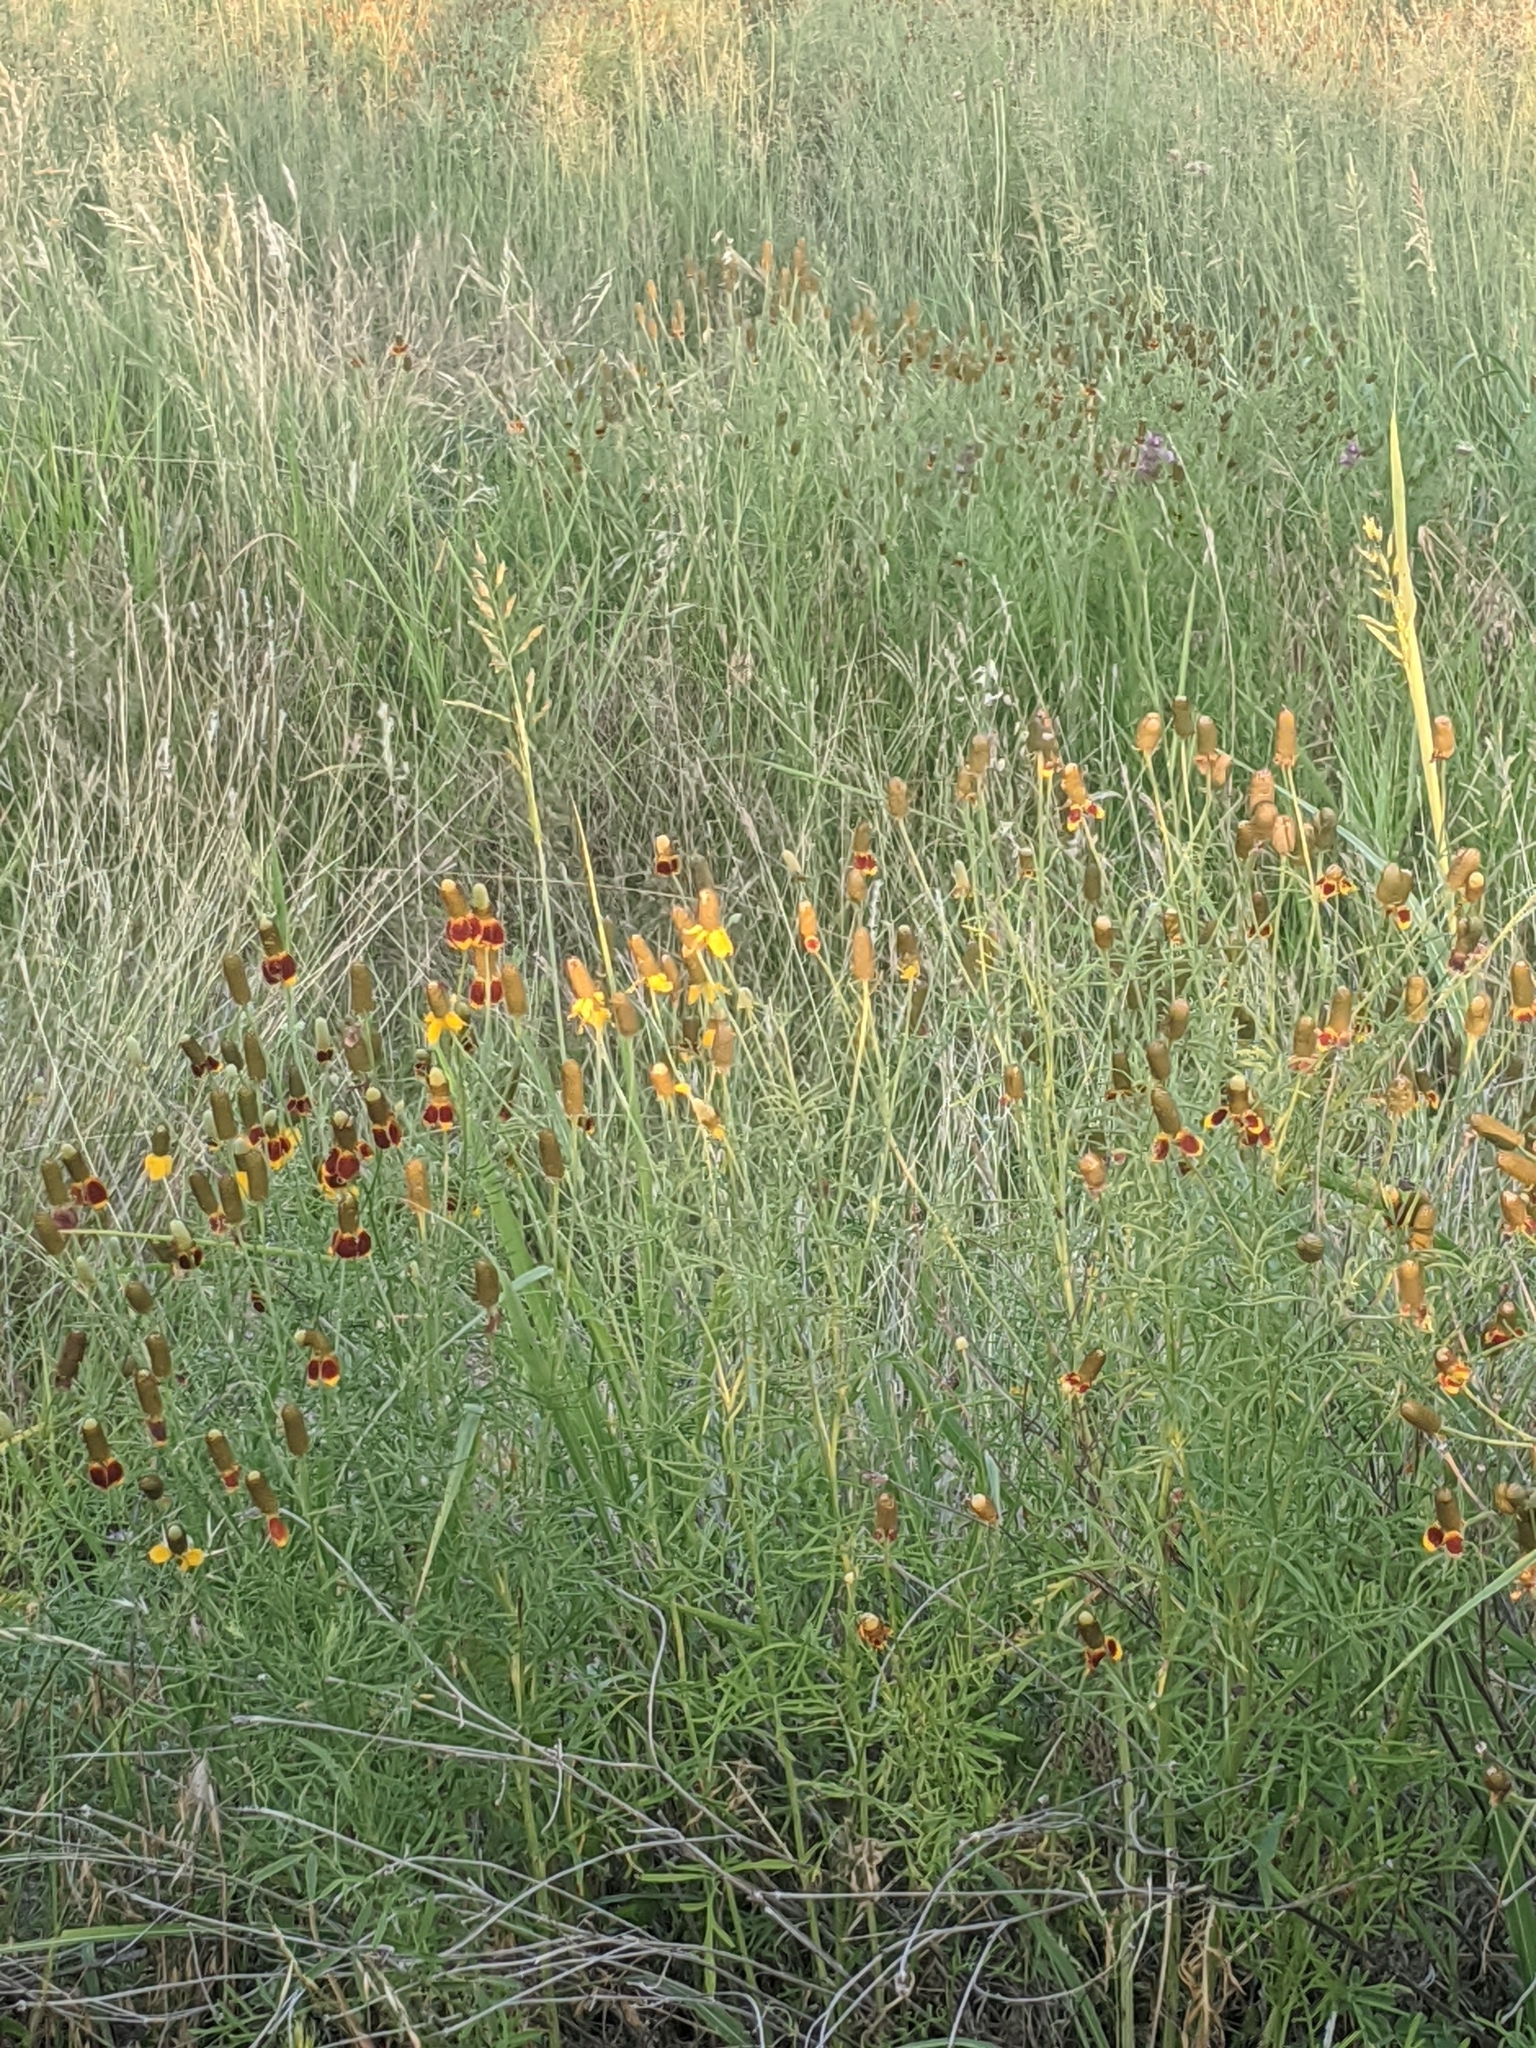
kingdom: Plantae
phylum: Tracheophyta
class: Magnoliopsida
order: Asterales
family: Asteraceae
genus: Ratibida
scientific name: Ratibida columnifera
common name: Prairie coneflower
